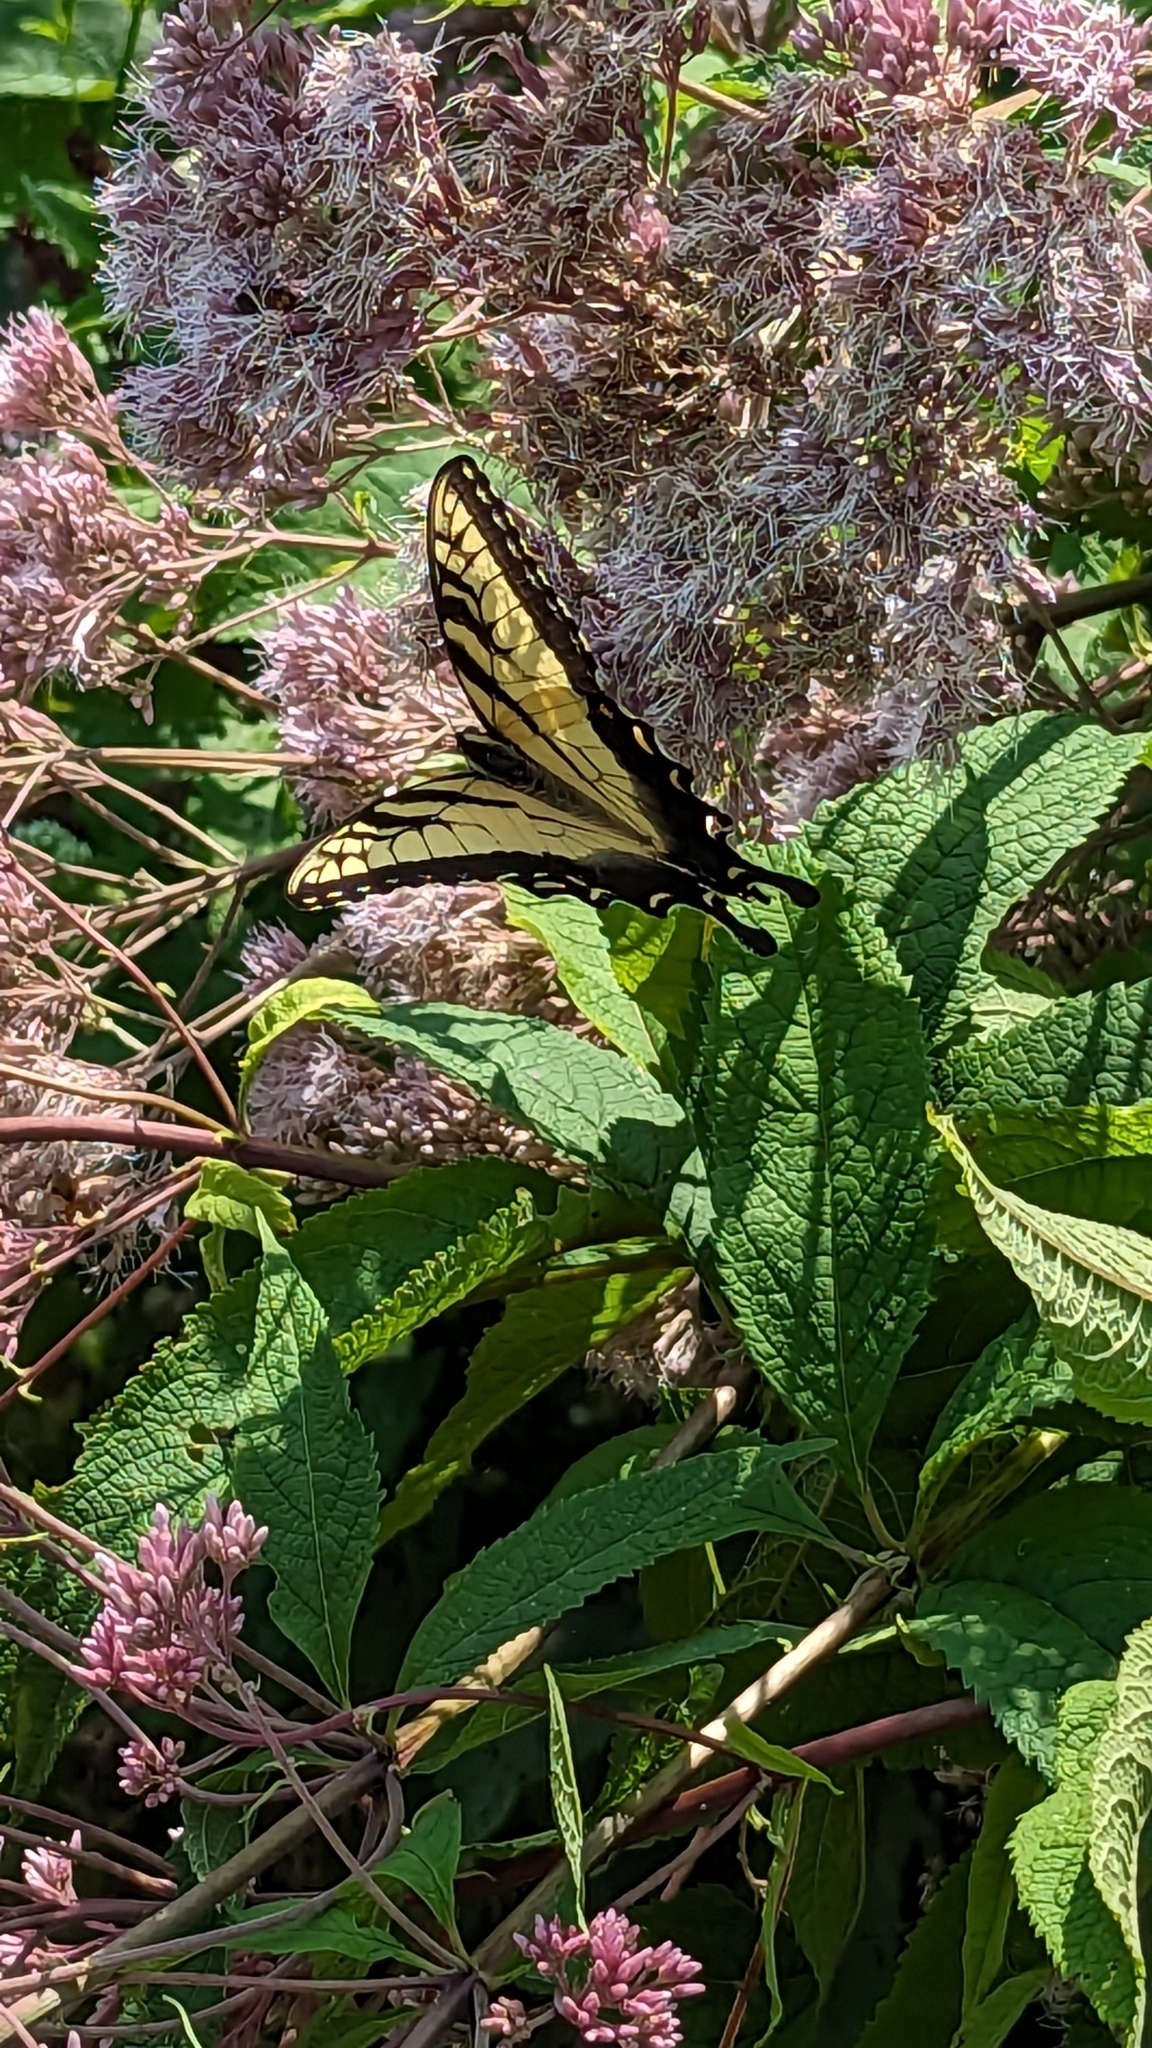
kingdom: Animalia
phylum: Arthropoda
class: Insecta
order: Lepidoptera
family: Papilionidae
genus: Papilio
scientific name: Papilio glaucus
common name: Tiger swallowtail
